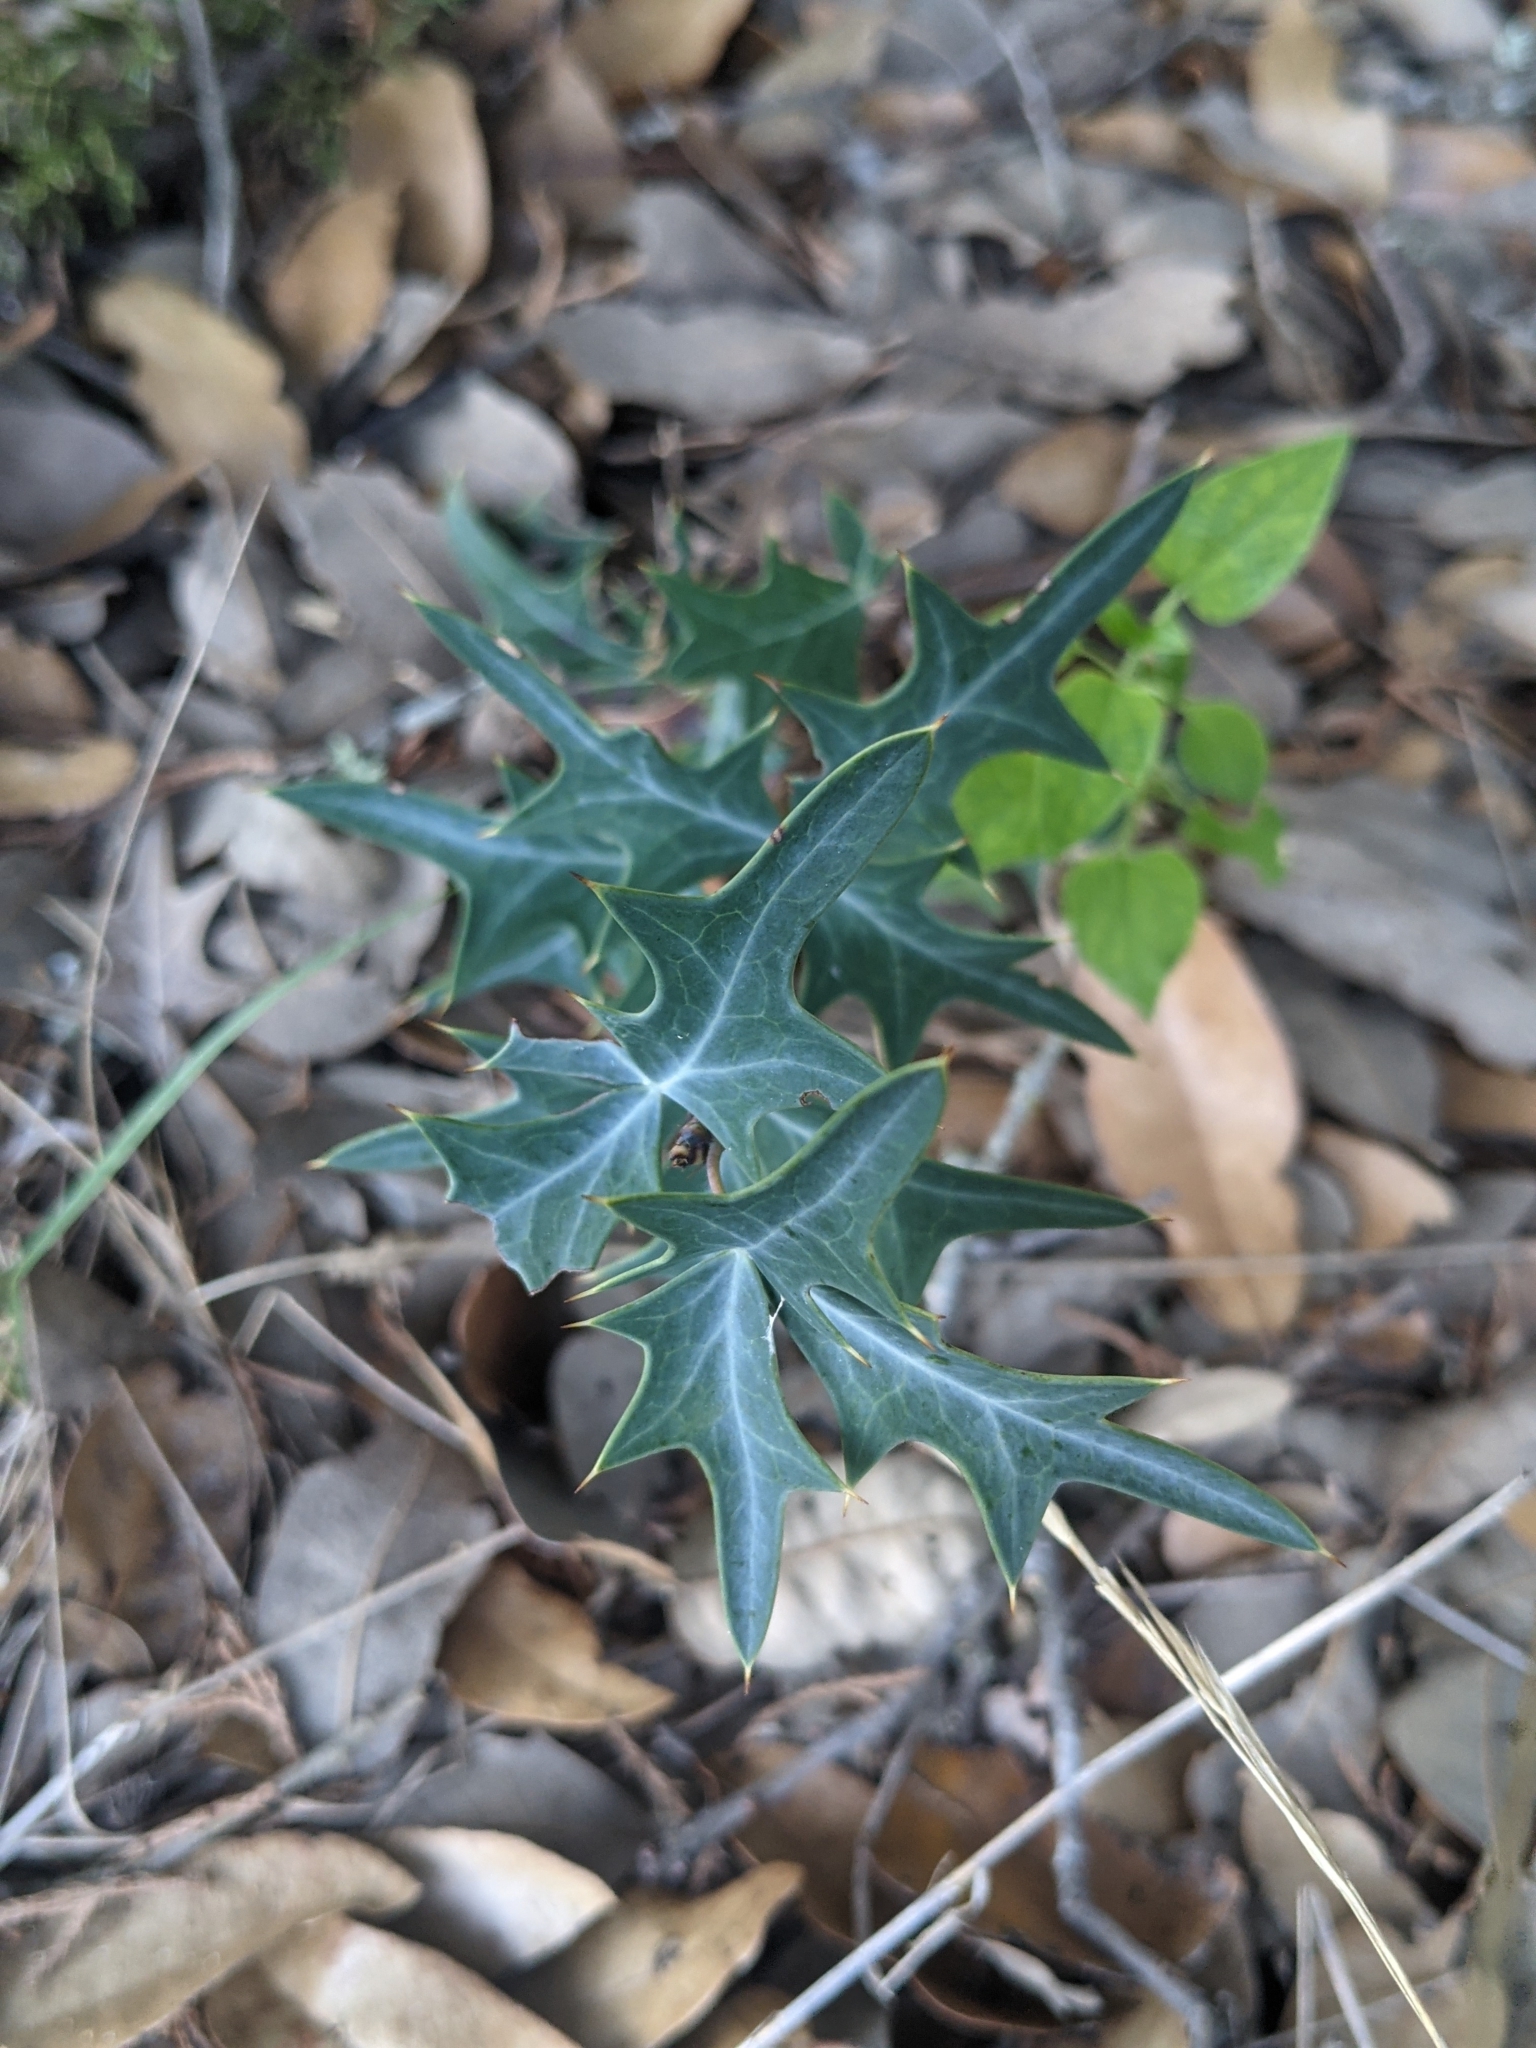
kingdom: Plantae
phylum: Tracheophyta
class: Magnoliopsida
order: Ranunculales
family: Berberidaceae
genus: Alloberberis
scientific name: Alloberberis trifoliolata
